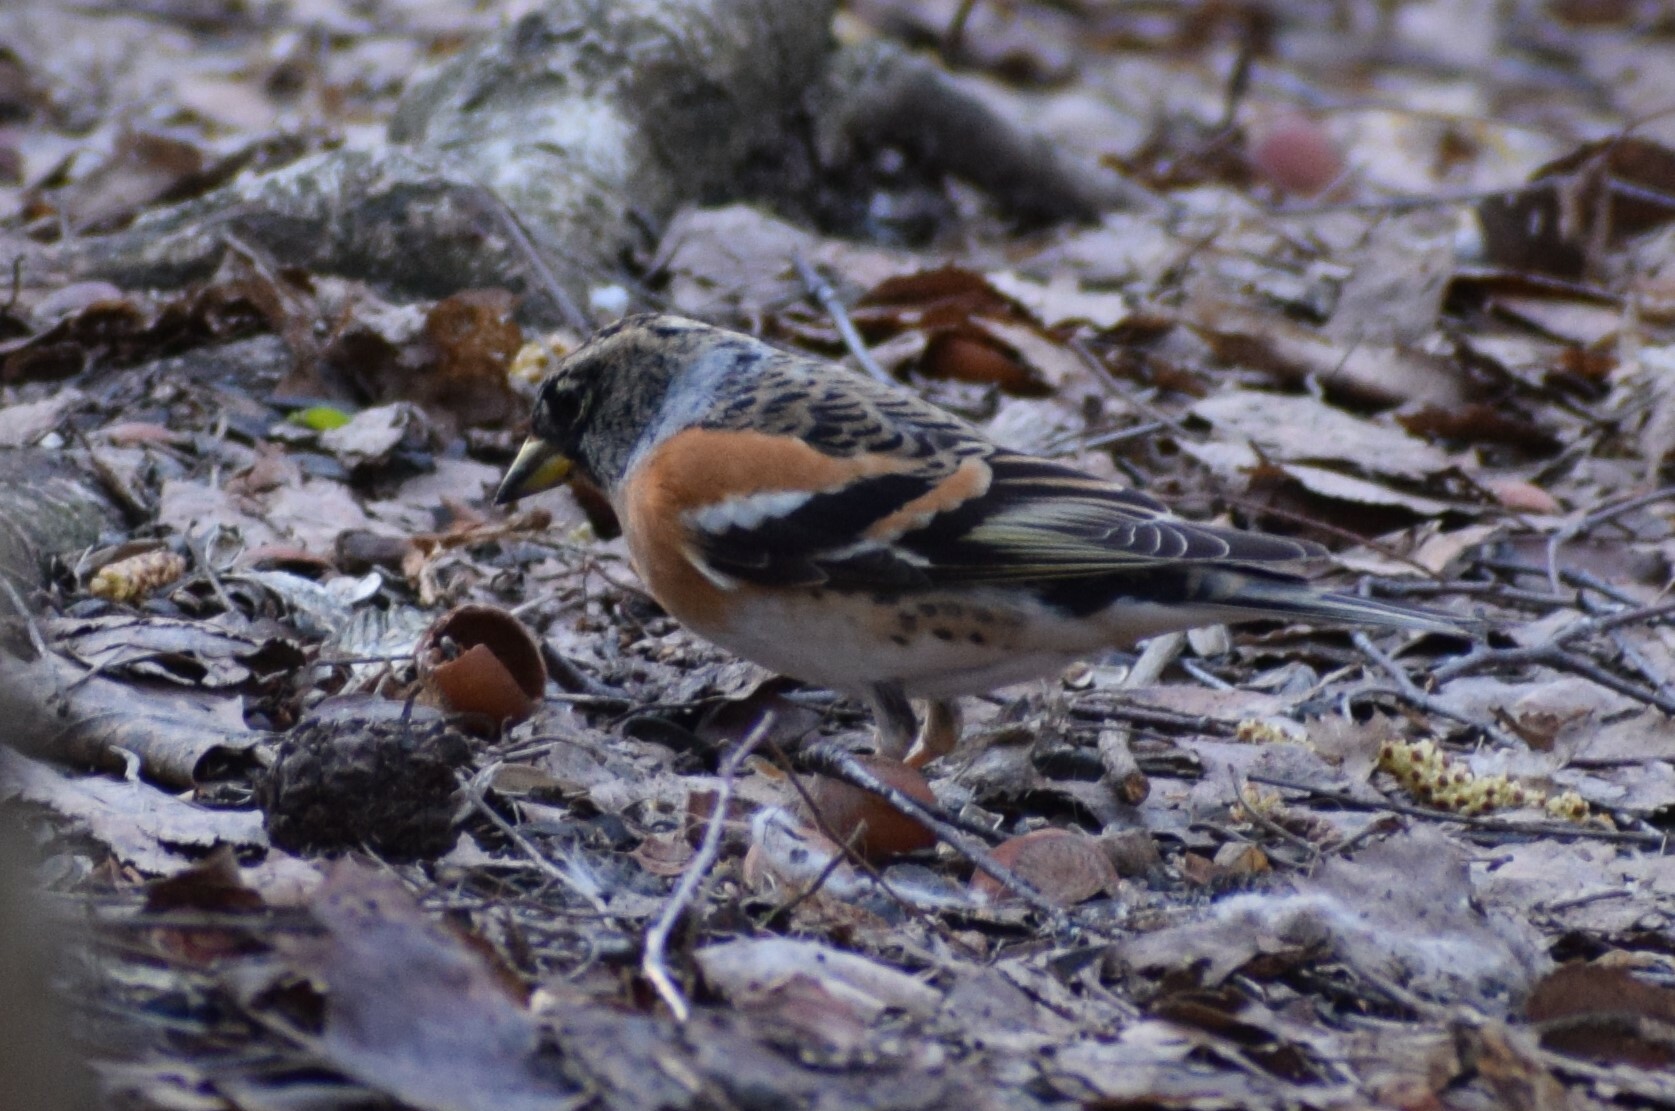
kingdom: Animalia
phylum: Chordata
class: Aves
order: Passeriformes
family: Fringillidae
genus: Fringilla
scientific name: Fringilla montifringilla
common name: Brambling
